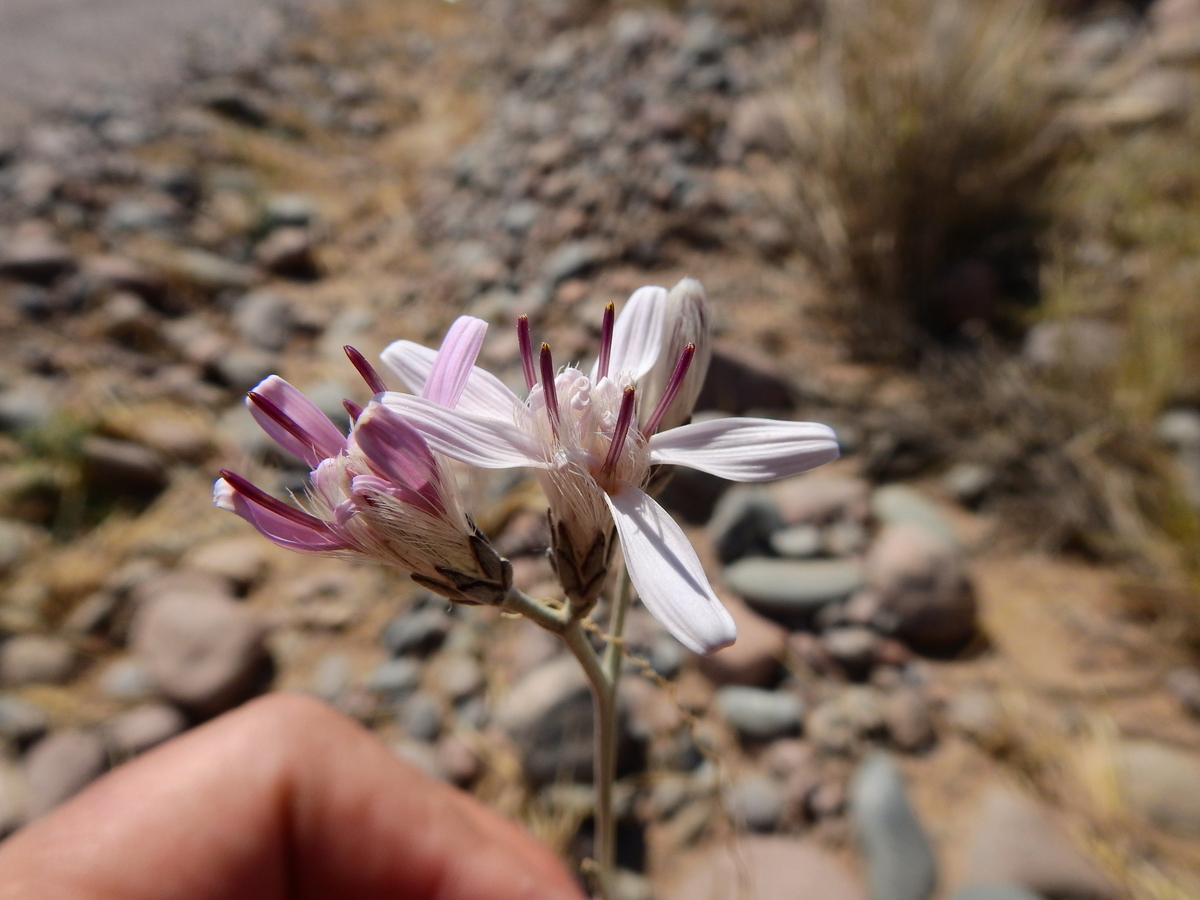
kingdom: Plantae
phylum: Tracheophyta
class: Magnoliopsida
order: Asterales
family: Asteraceae
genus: Hyalis
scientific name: Hyalis argentea
